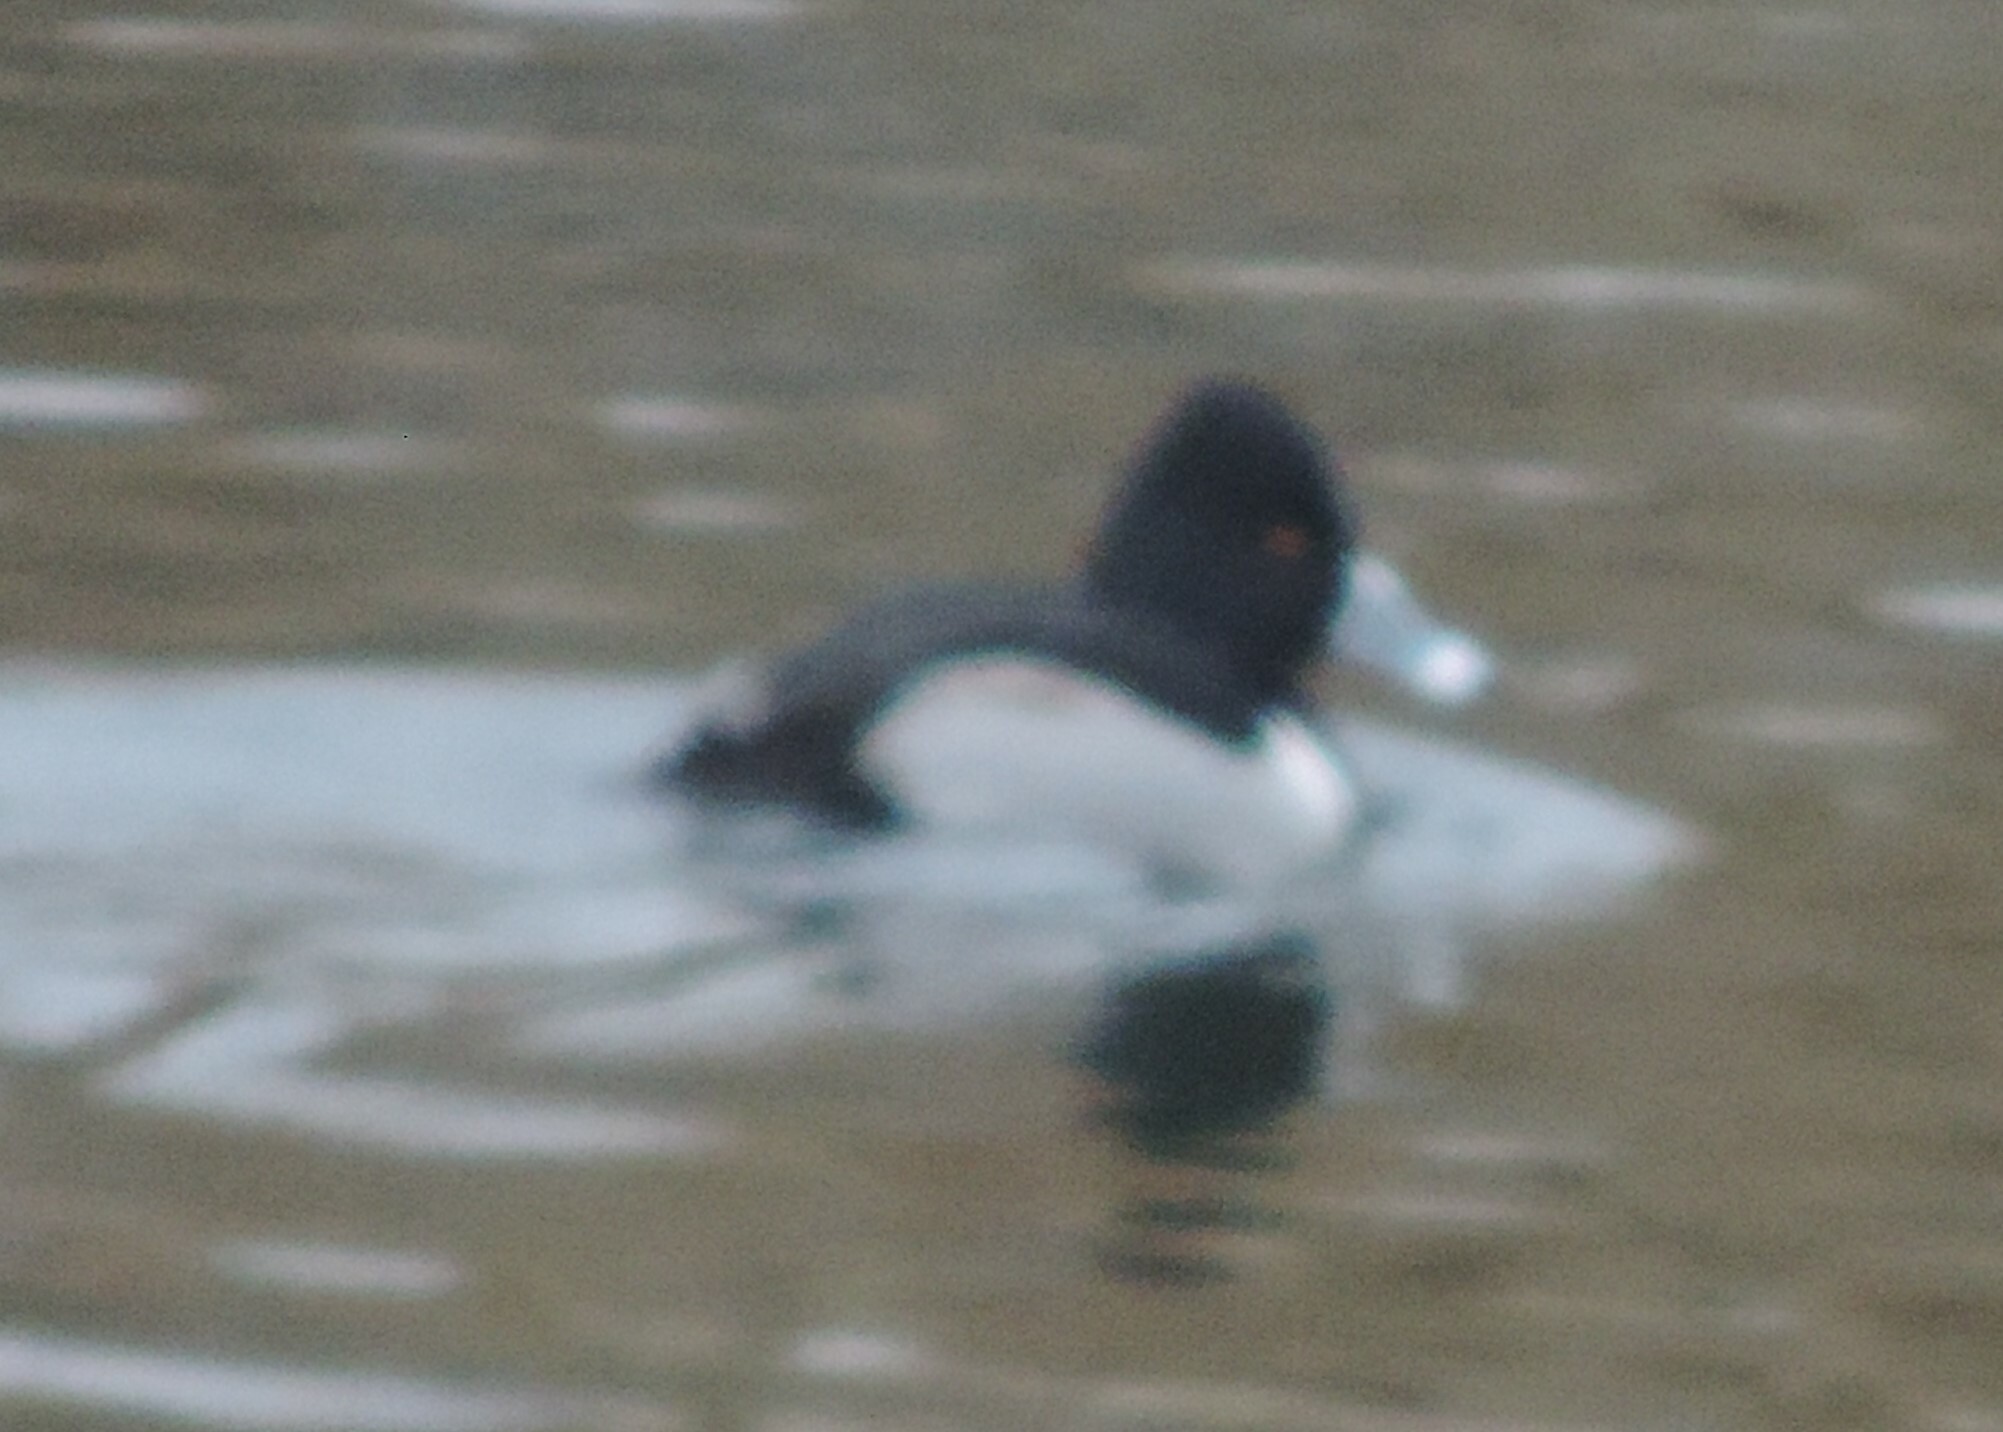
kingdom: Animalia
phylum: Chordata
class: Aves
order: Anseriformes
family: Anatidae
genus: Aythya
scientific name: Aythya collaris
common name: Ring-necked duck
